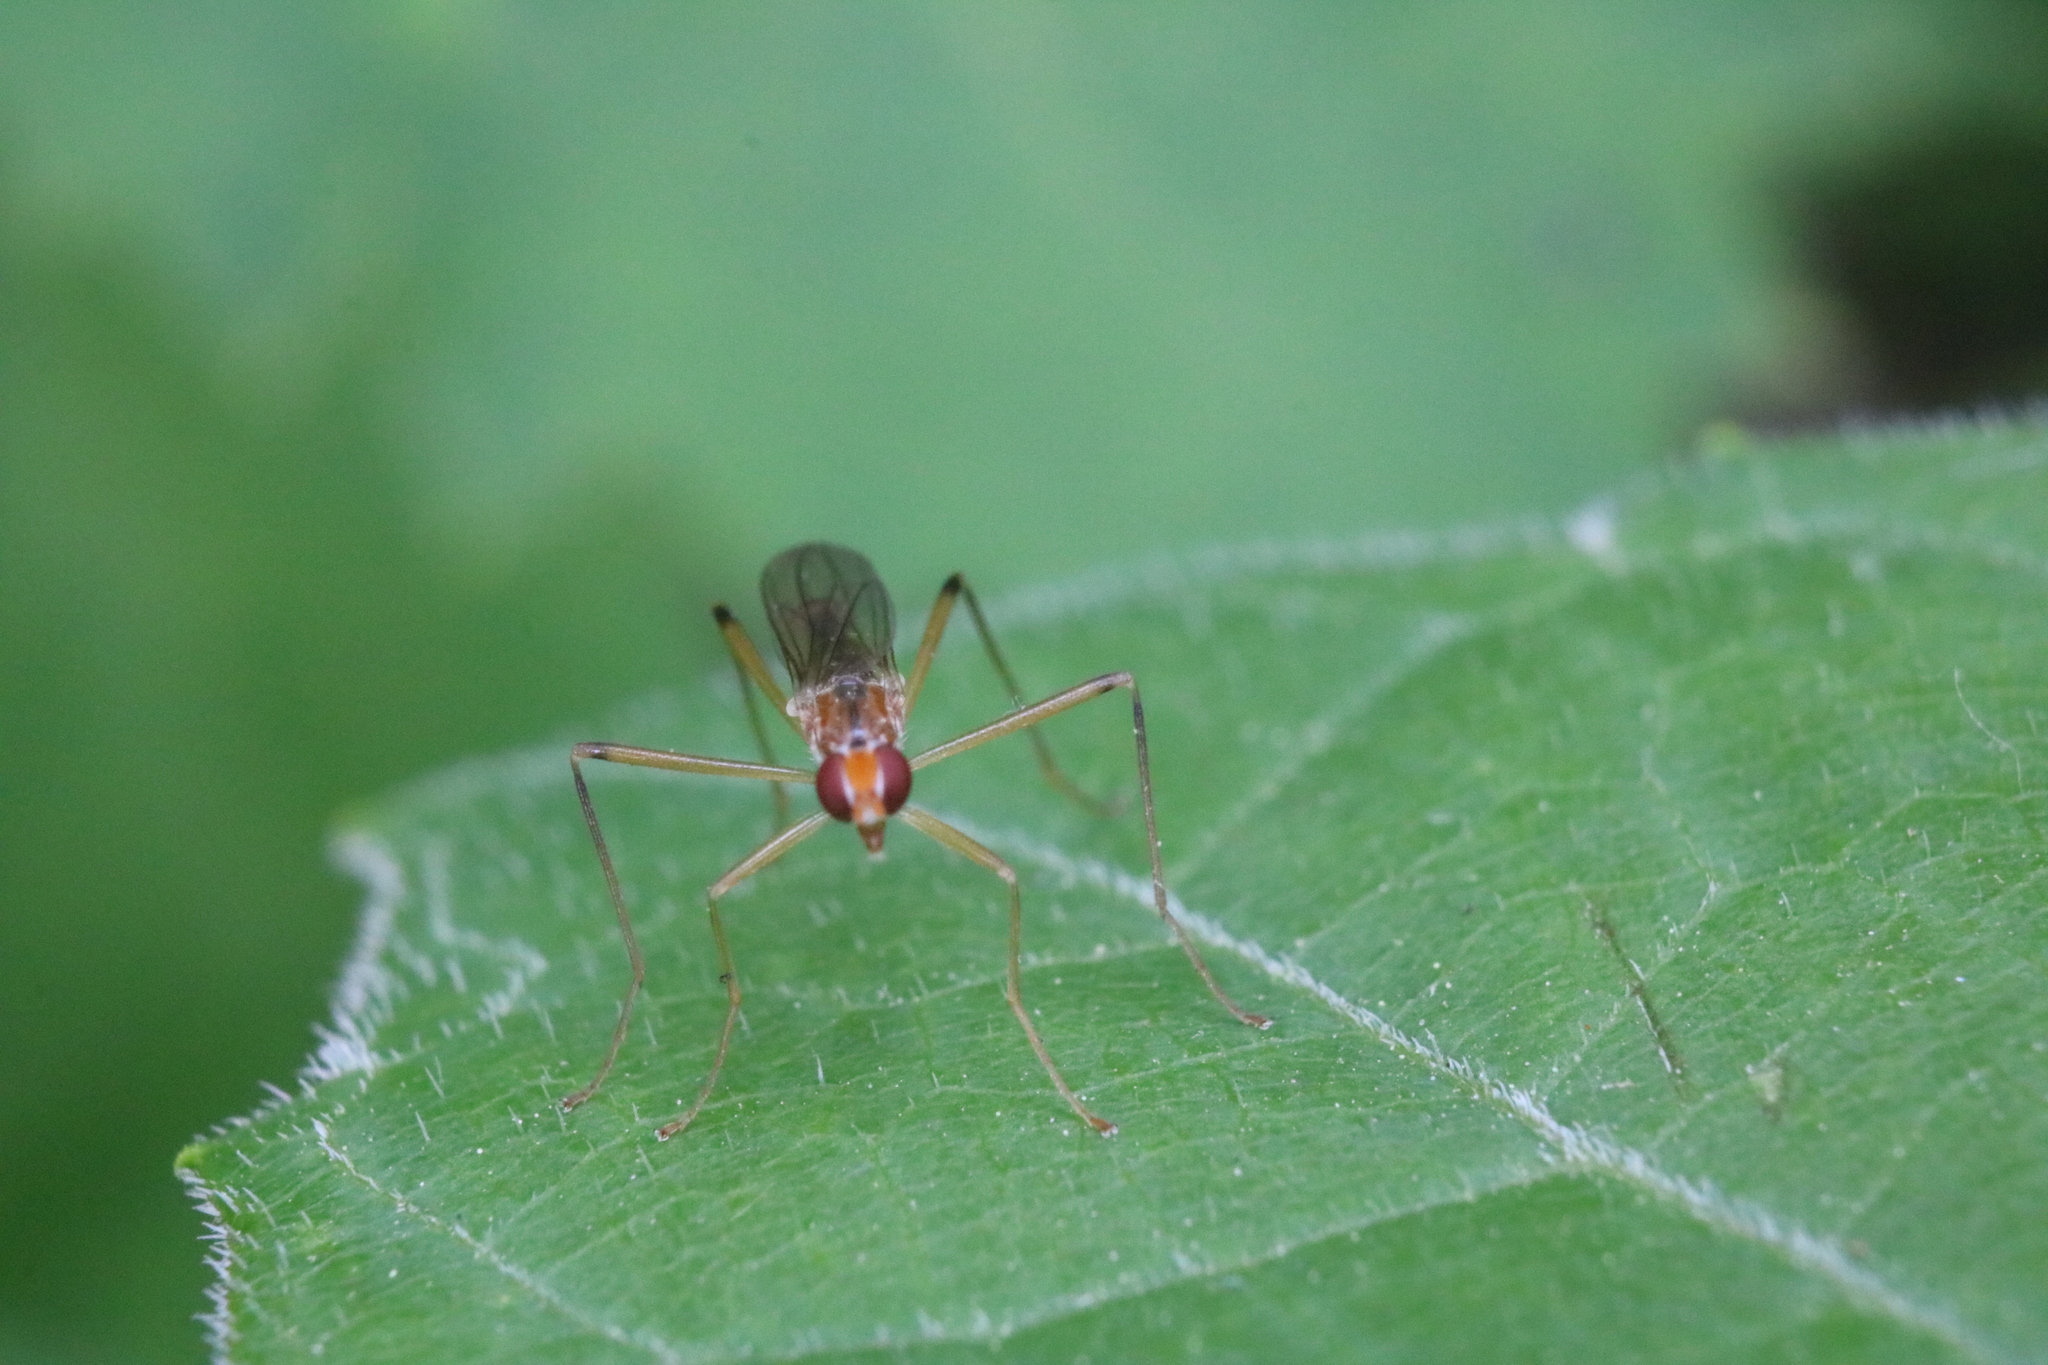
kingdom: Animalia
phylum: Arthropoda
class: Insecta
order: Diptera
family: Micropezidae
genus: Compsobata
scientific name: Compsobata univitta
